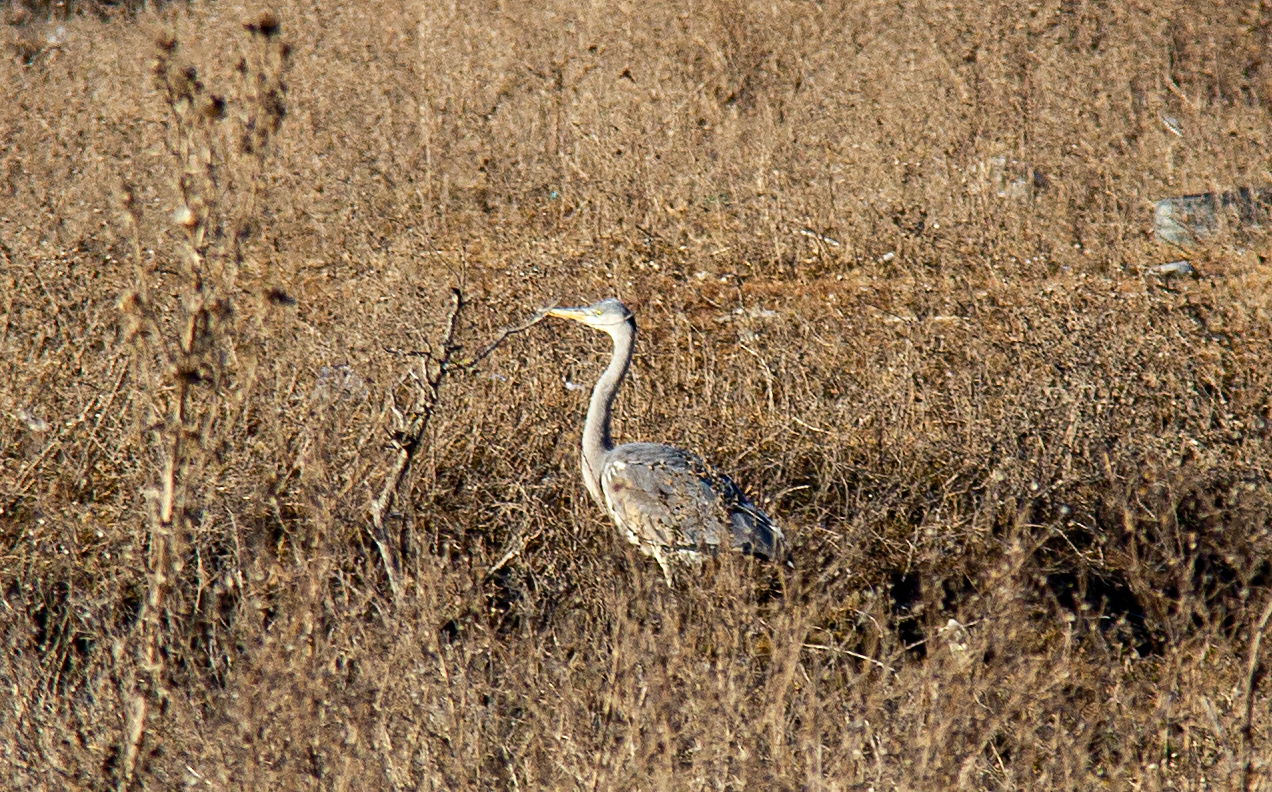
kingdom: Animalia
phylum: Chordata
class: Aves
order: Pelecaniformes
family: Ardeidae
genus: Ardea
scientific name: Ardea cinerea
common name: Grey heron
